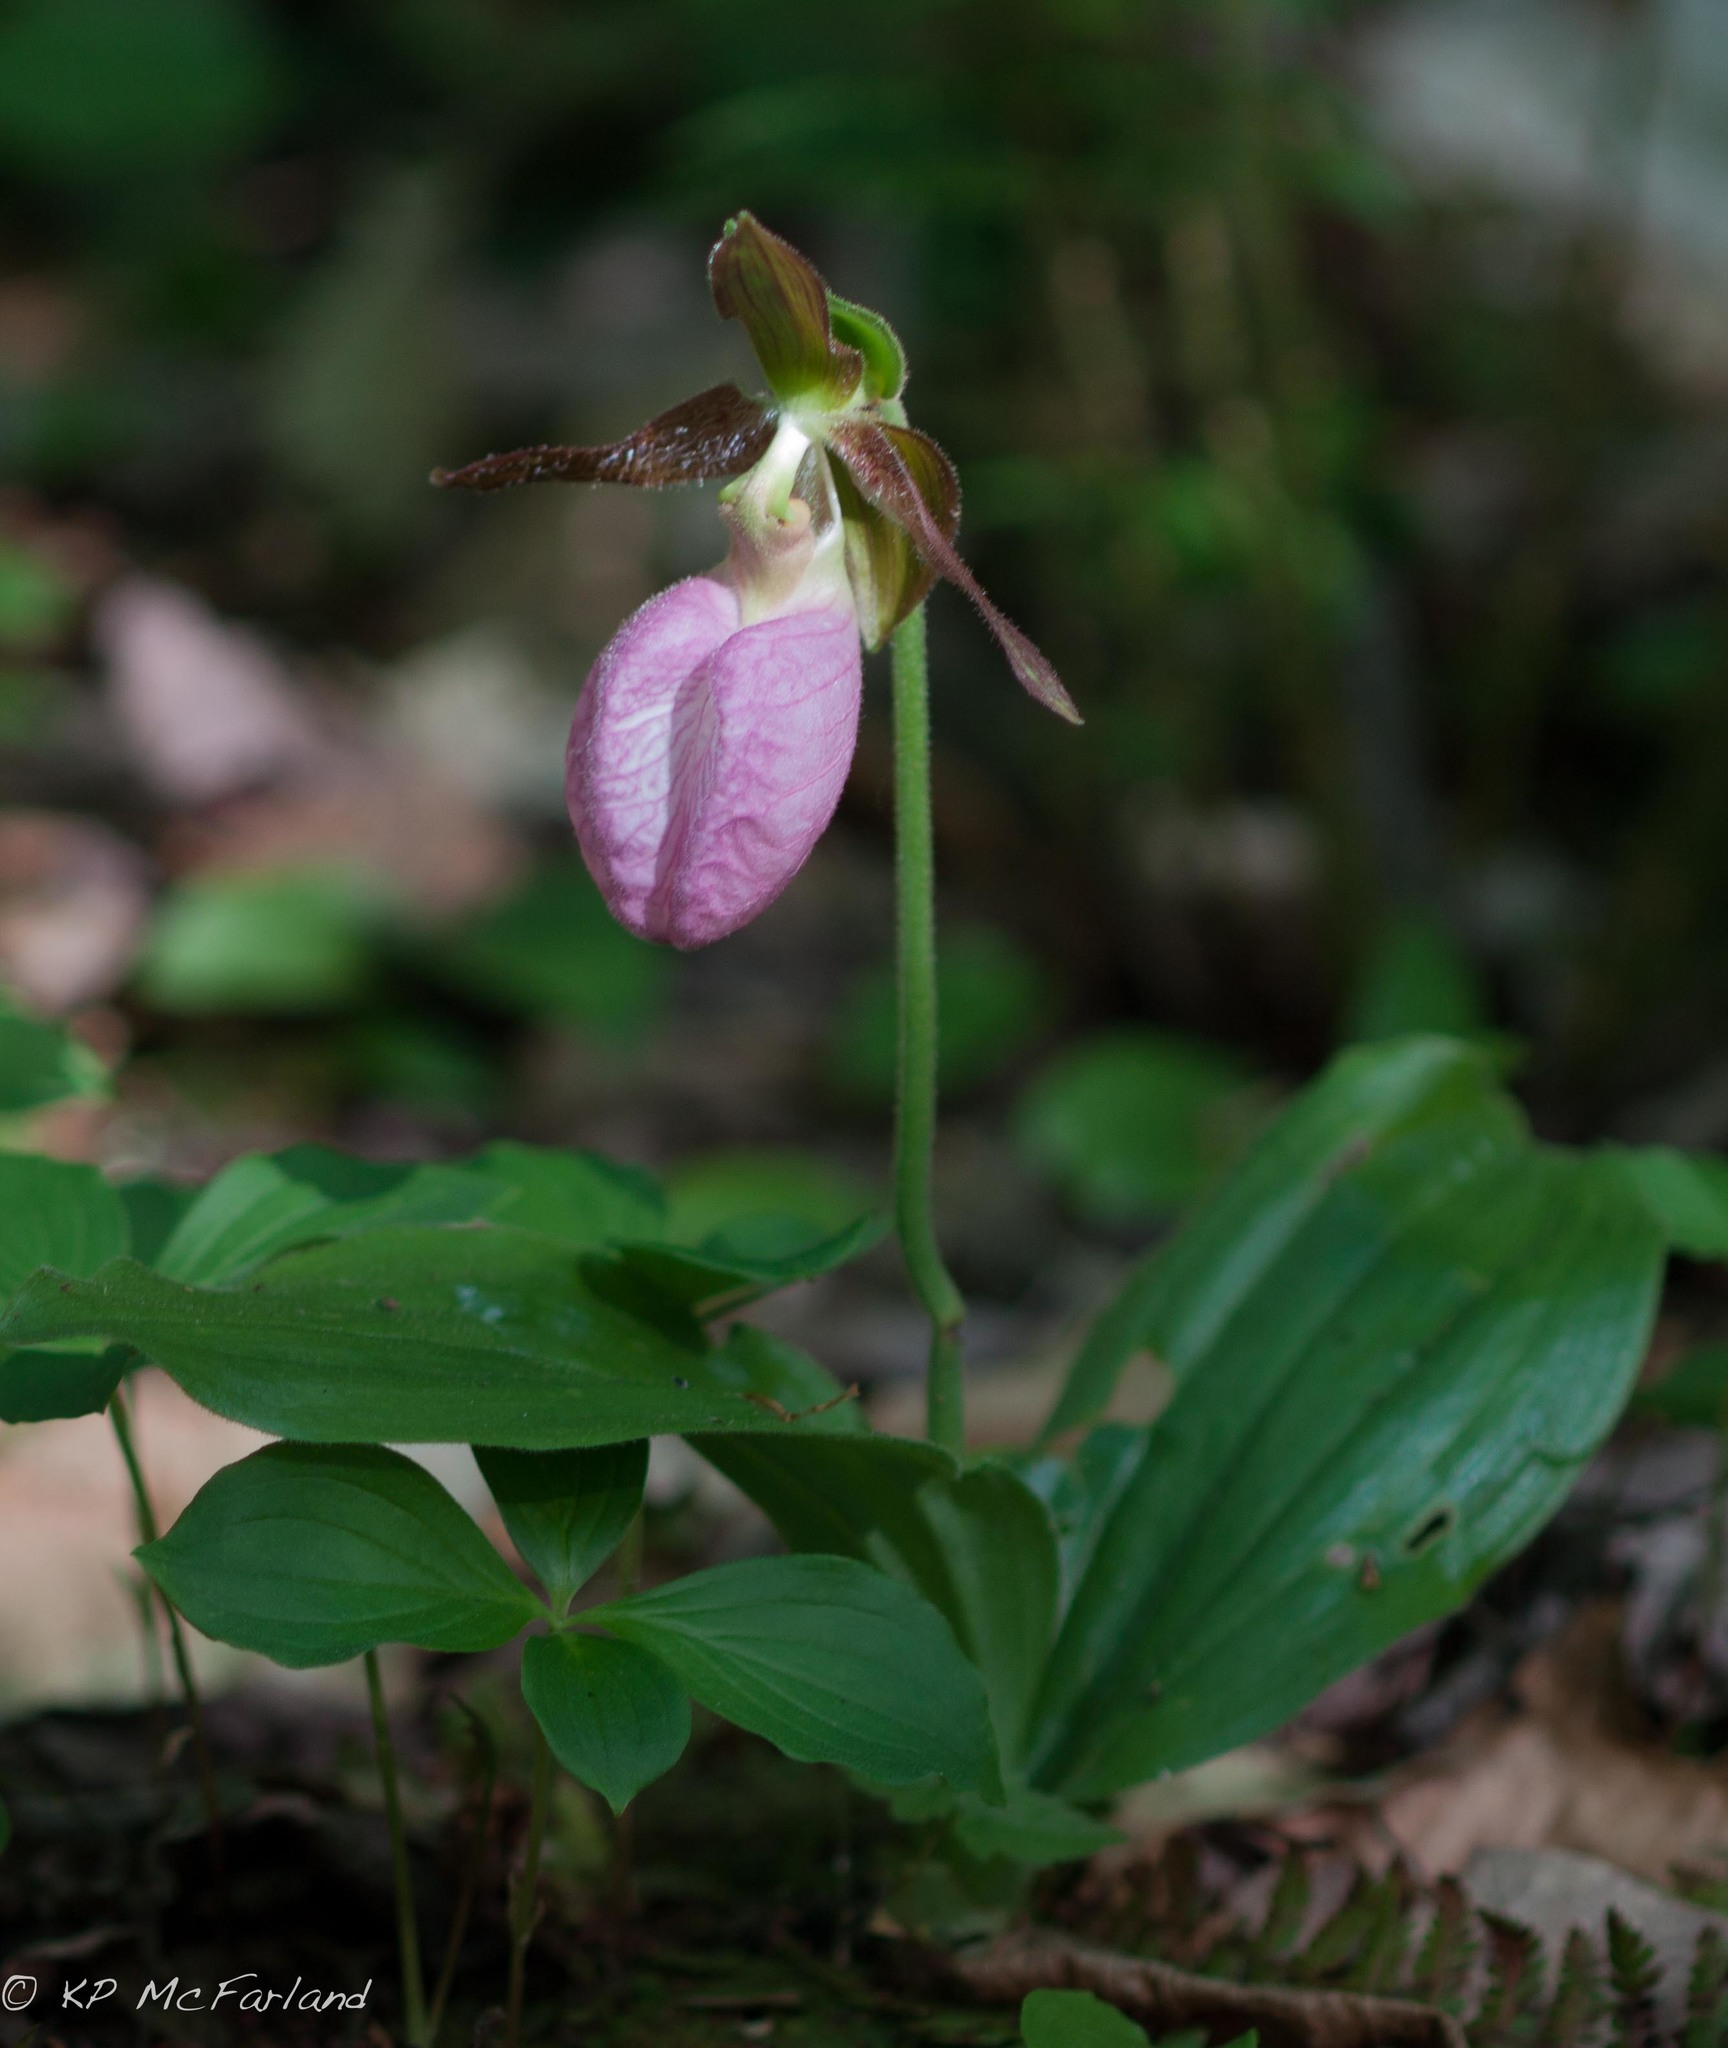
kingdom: Plantae
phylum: Tracheophyta
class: Liliopsida
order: Asparagales
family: Orchidaceae
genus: Cypripedium
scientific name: Cypripedium acaule
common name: Pink lady's-slipper
